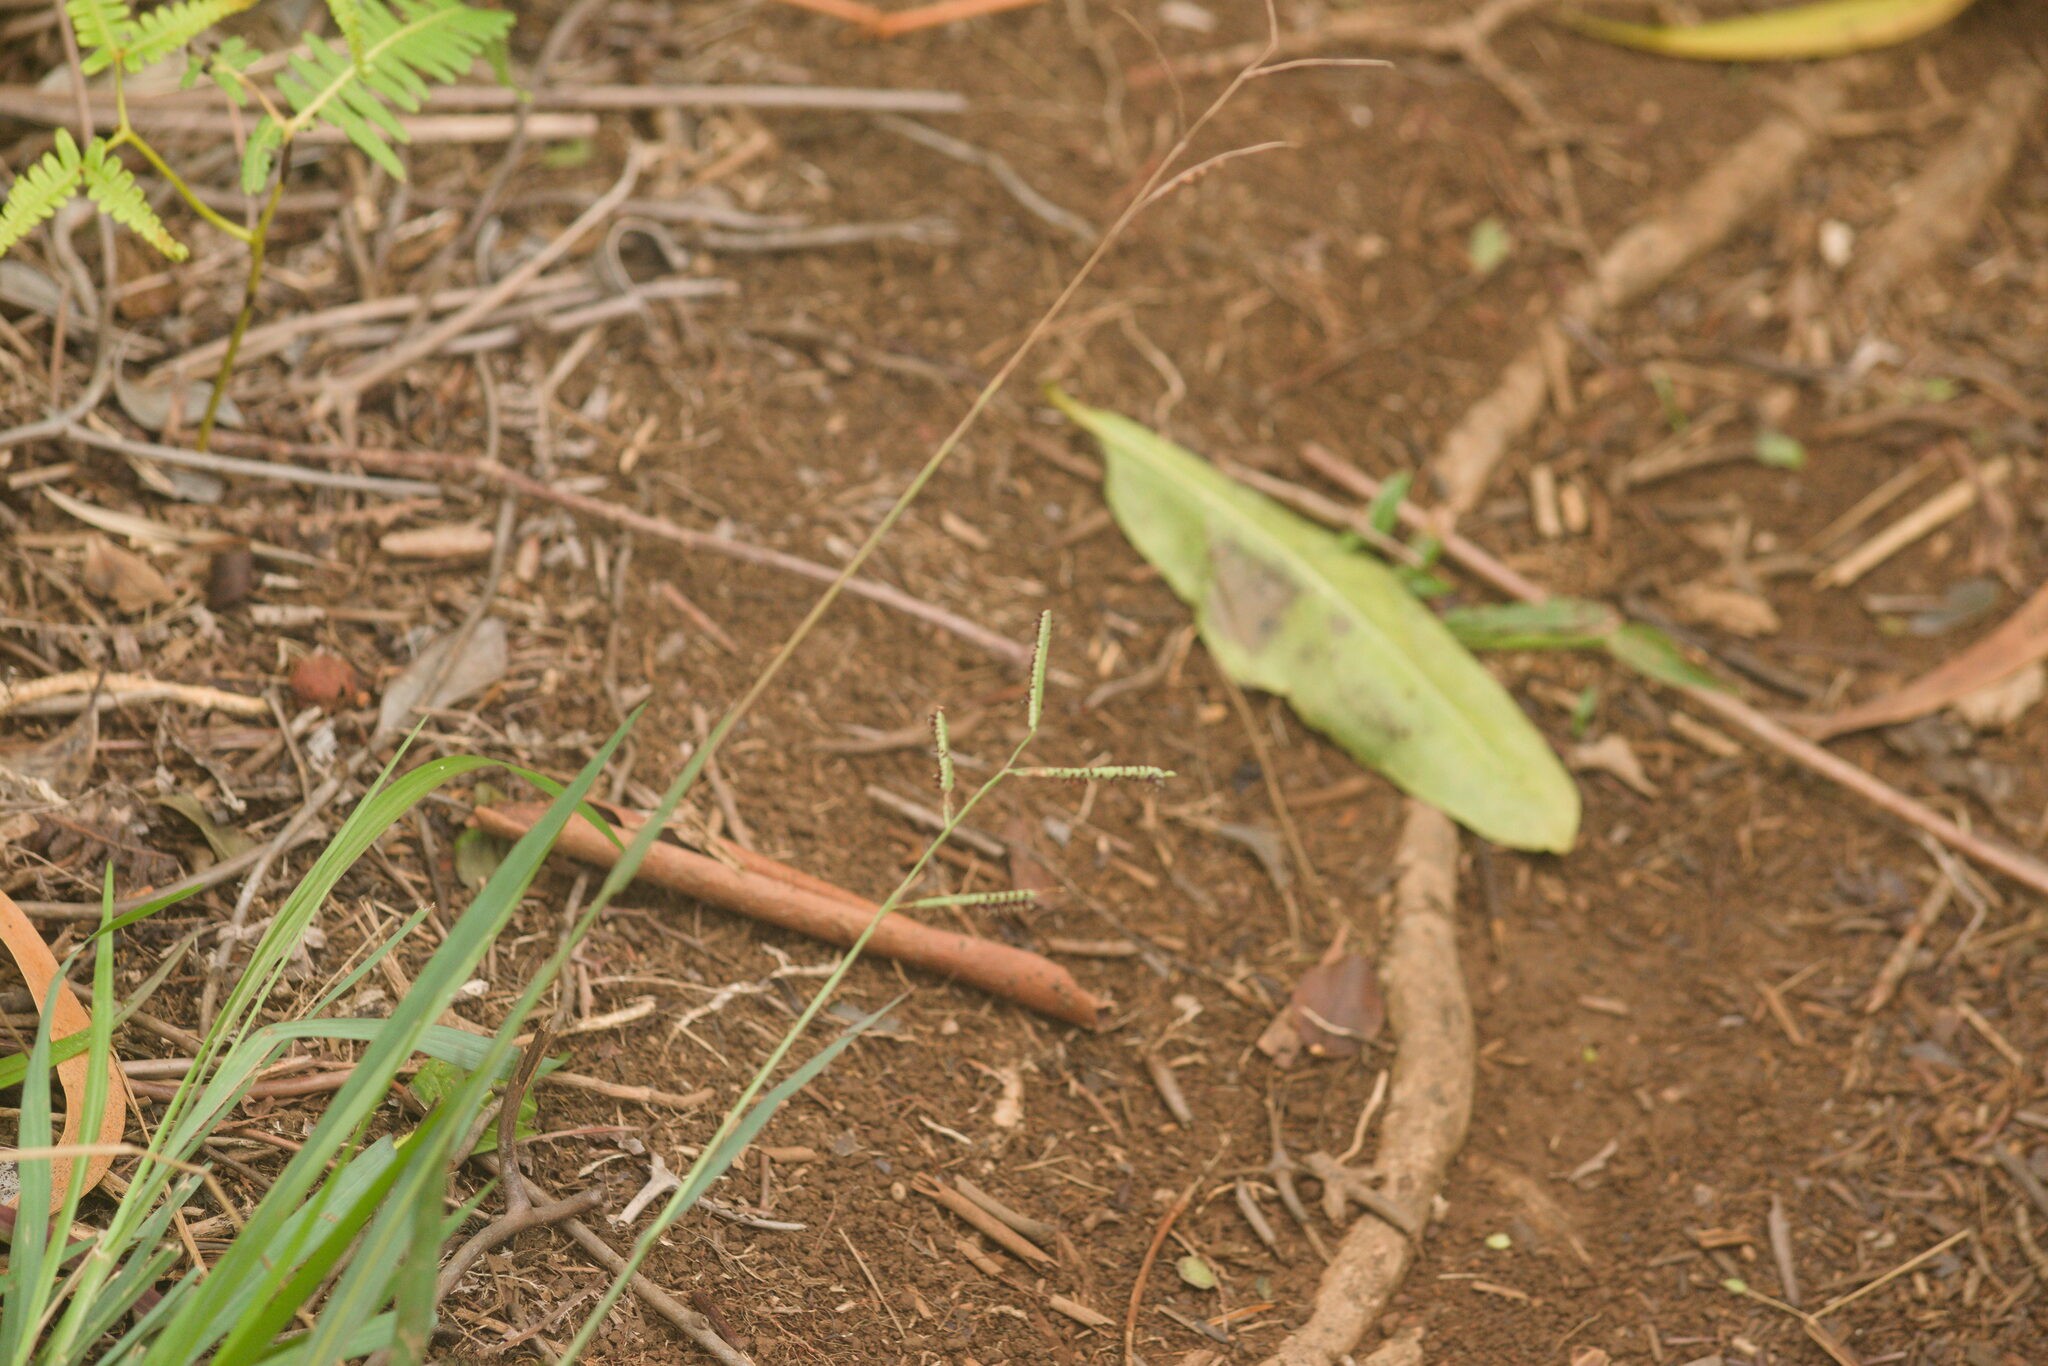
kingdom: Plantae
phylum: Tracheophyta
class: Liliopsida
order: Poales
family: Poaceae
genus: Paspalum
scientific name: Paspalum scrobiculatum
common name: Kodo millet
